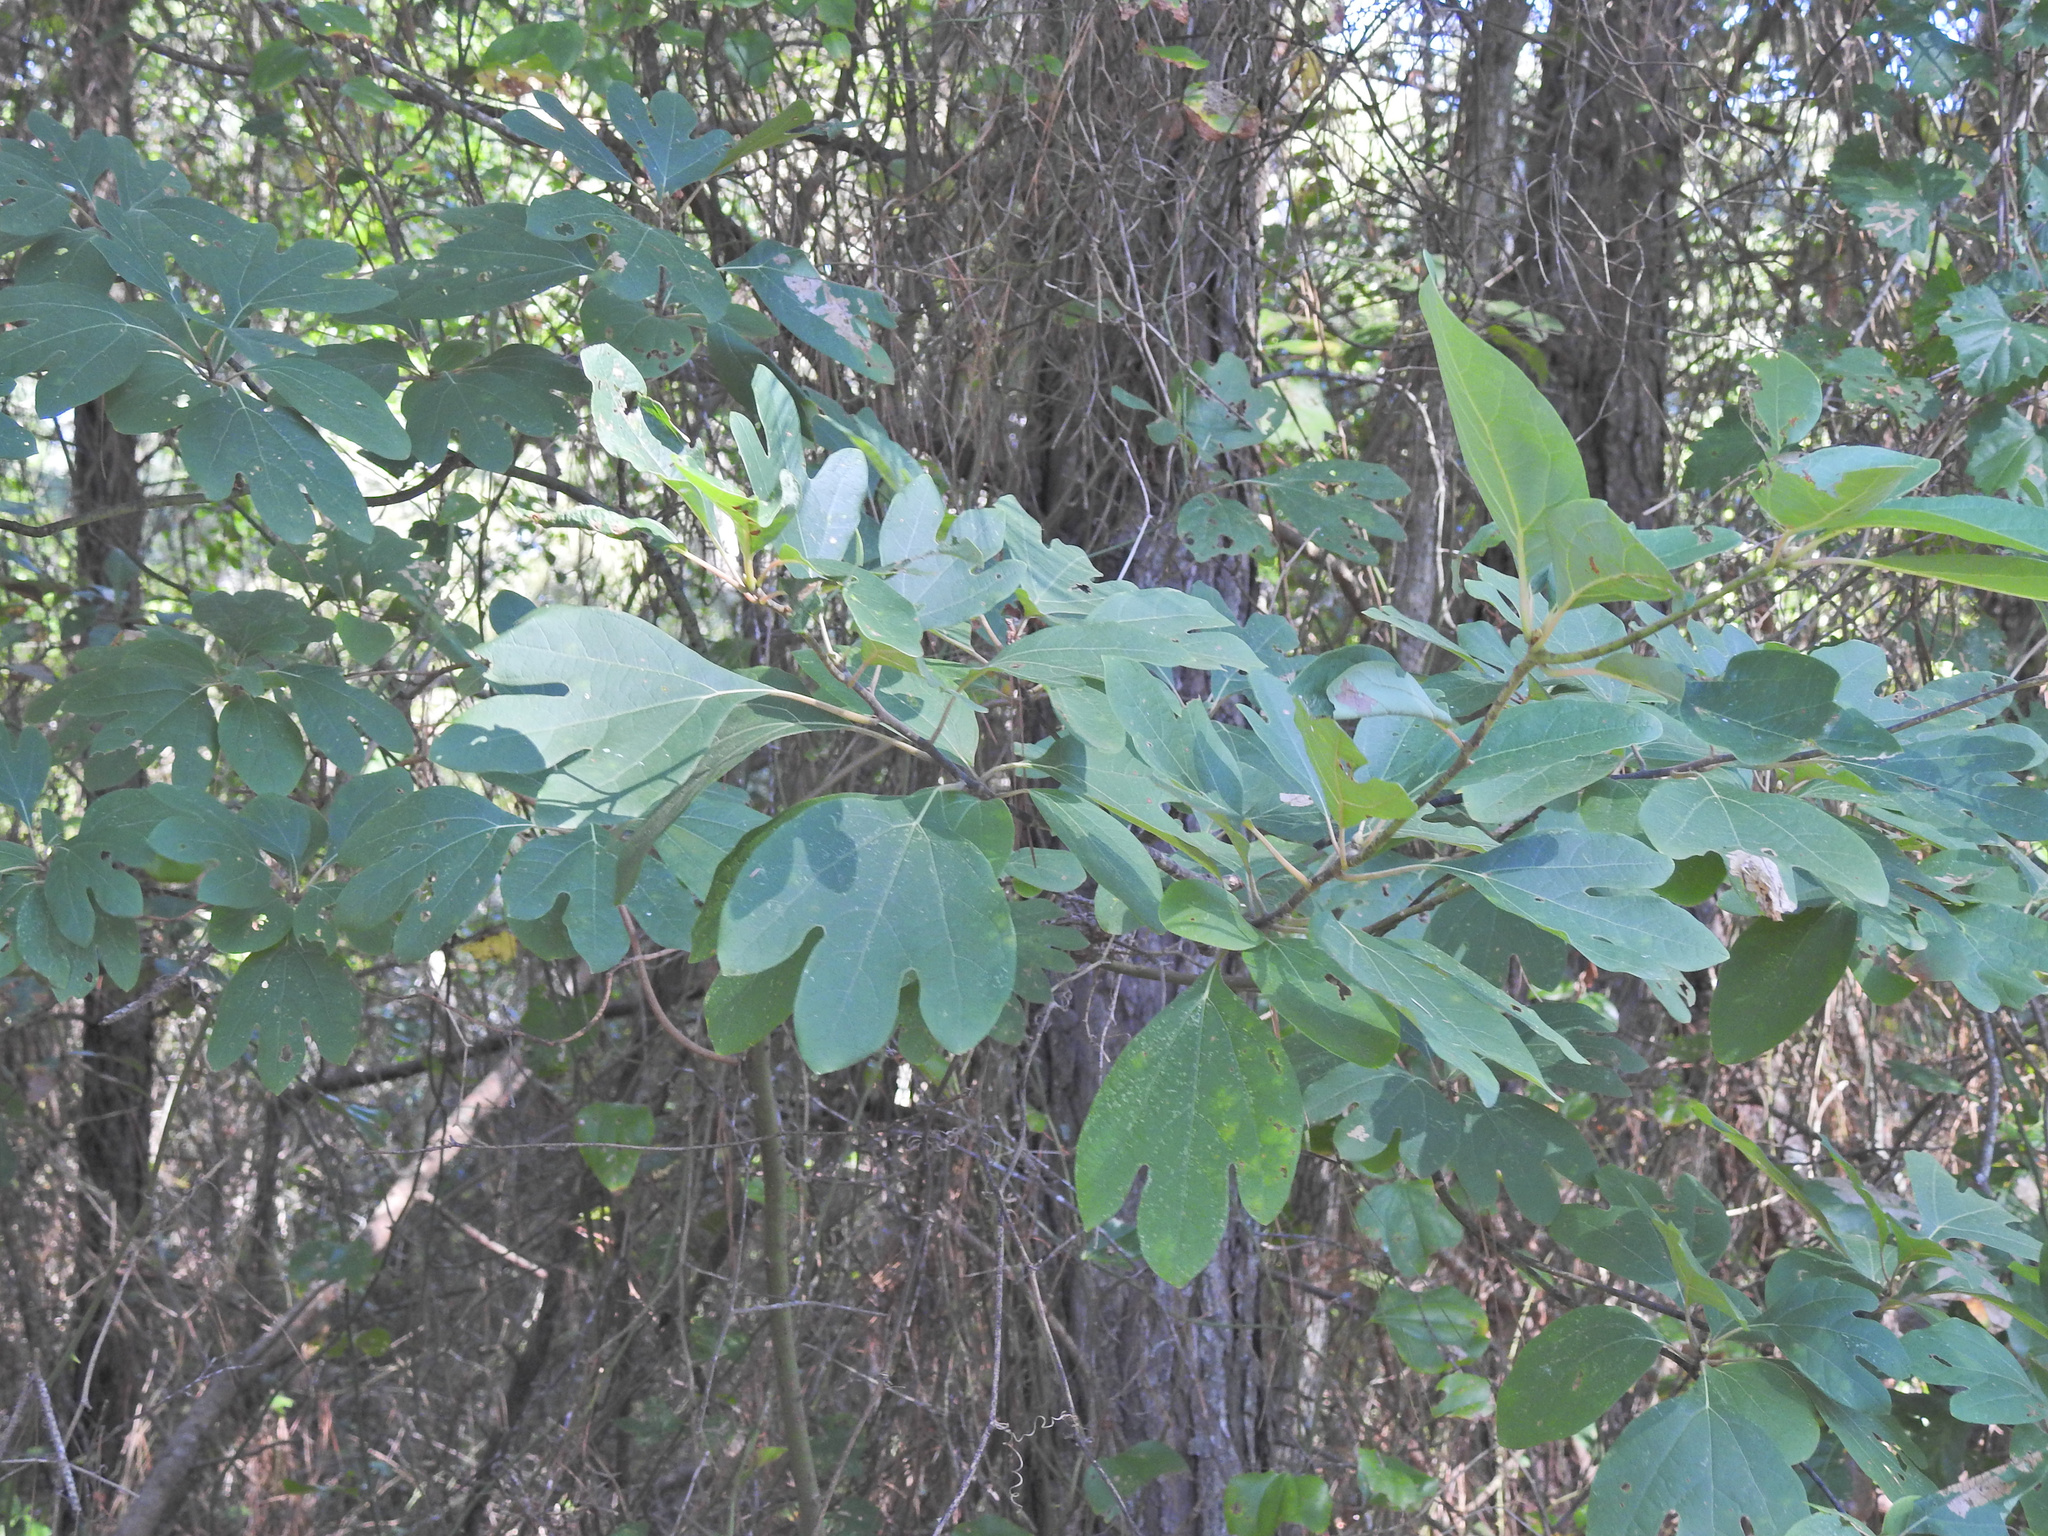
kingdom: Plantae
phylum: Tracheophyta
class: Magnoliopsida
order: Laurales
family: Lauraceae
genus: Sassafras
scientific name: Sassafras albidum
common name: Sassafras
